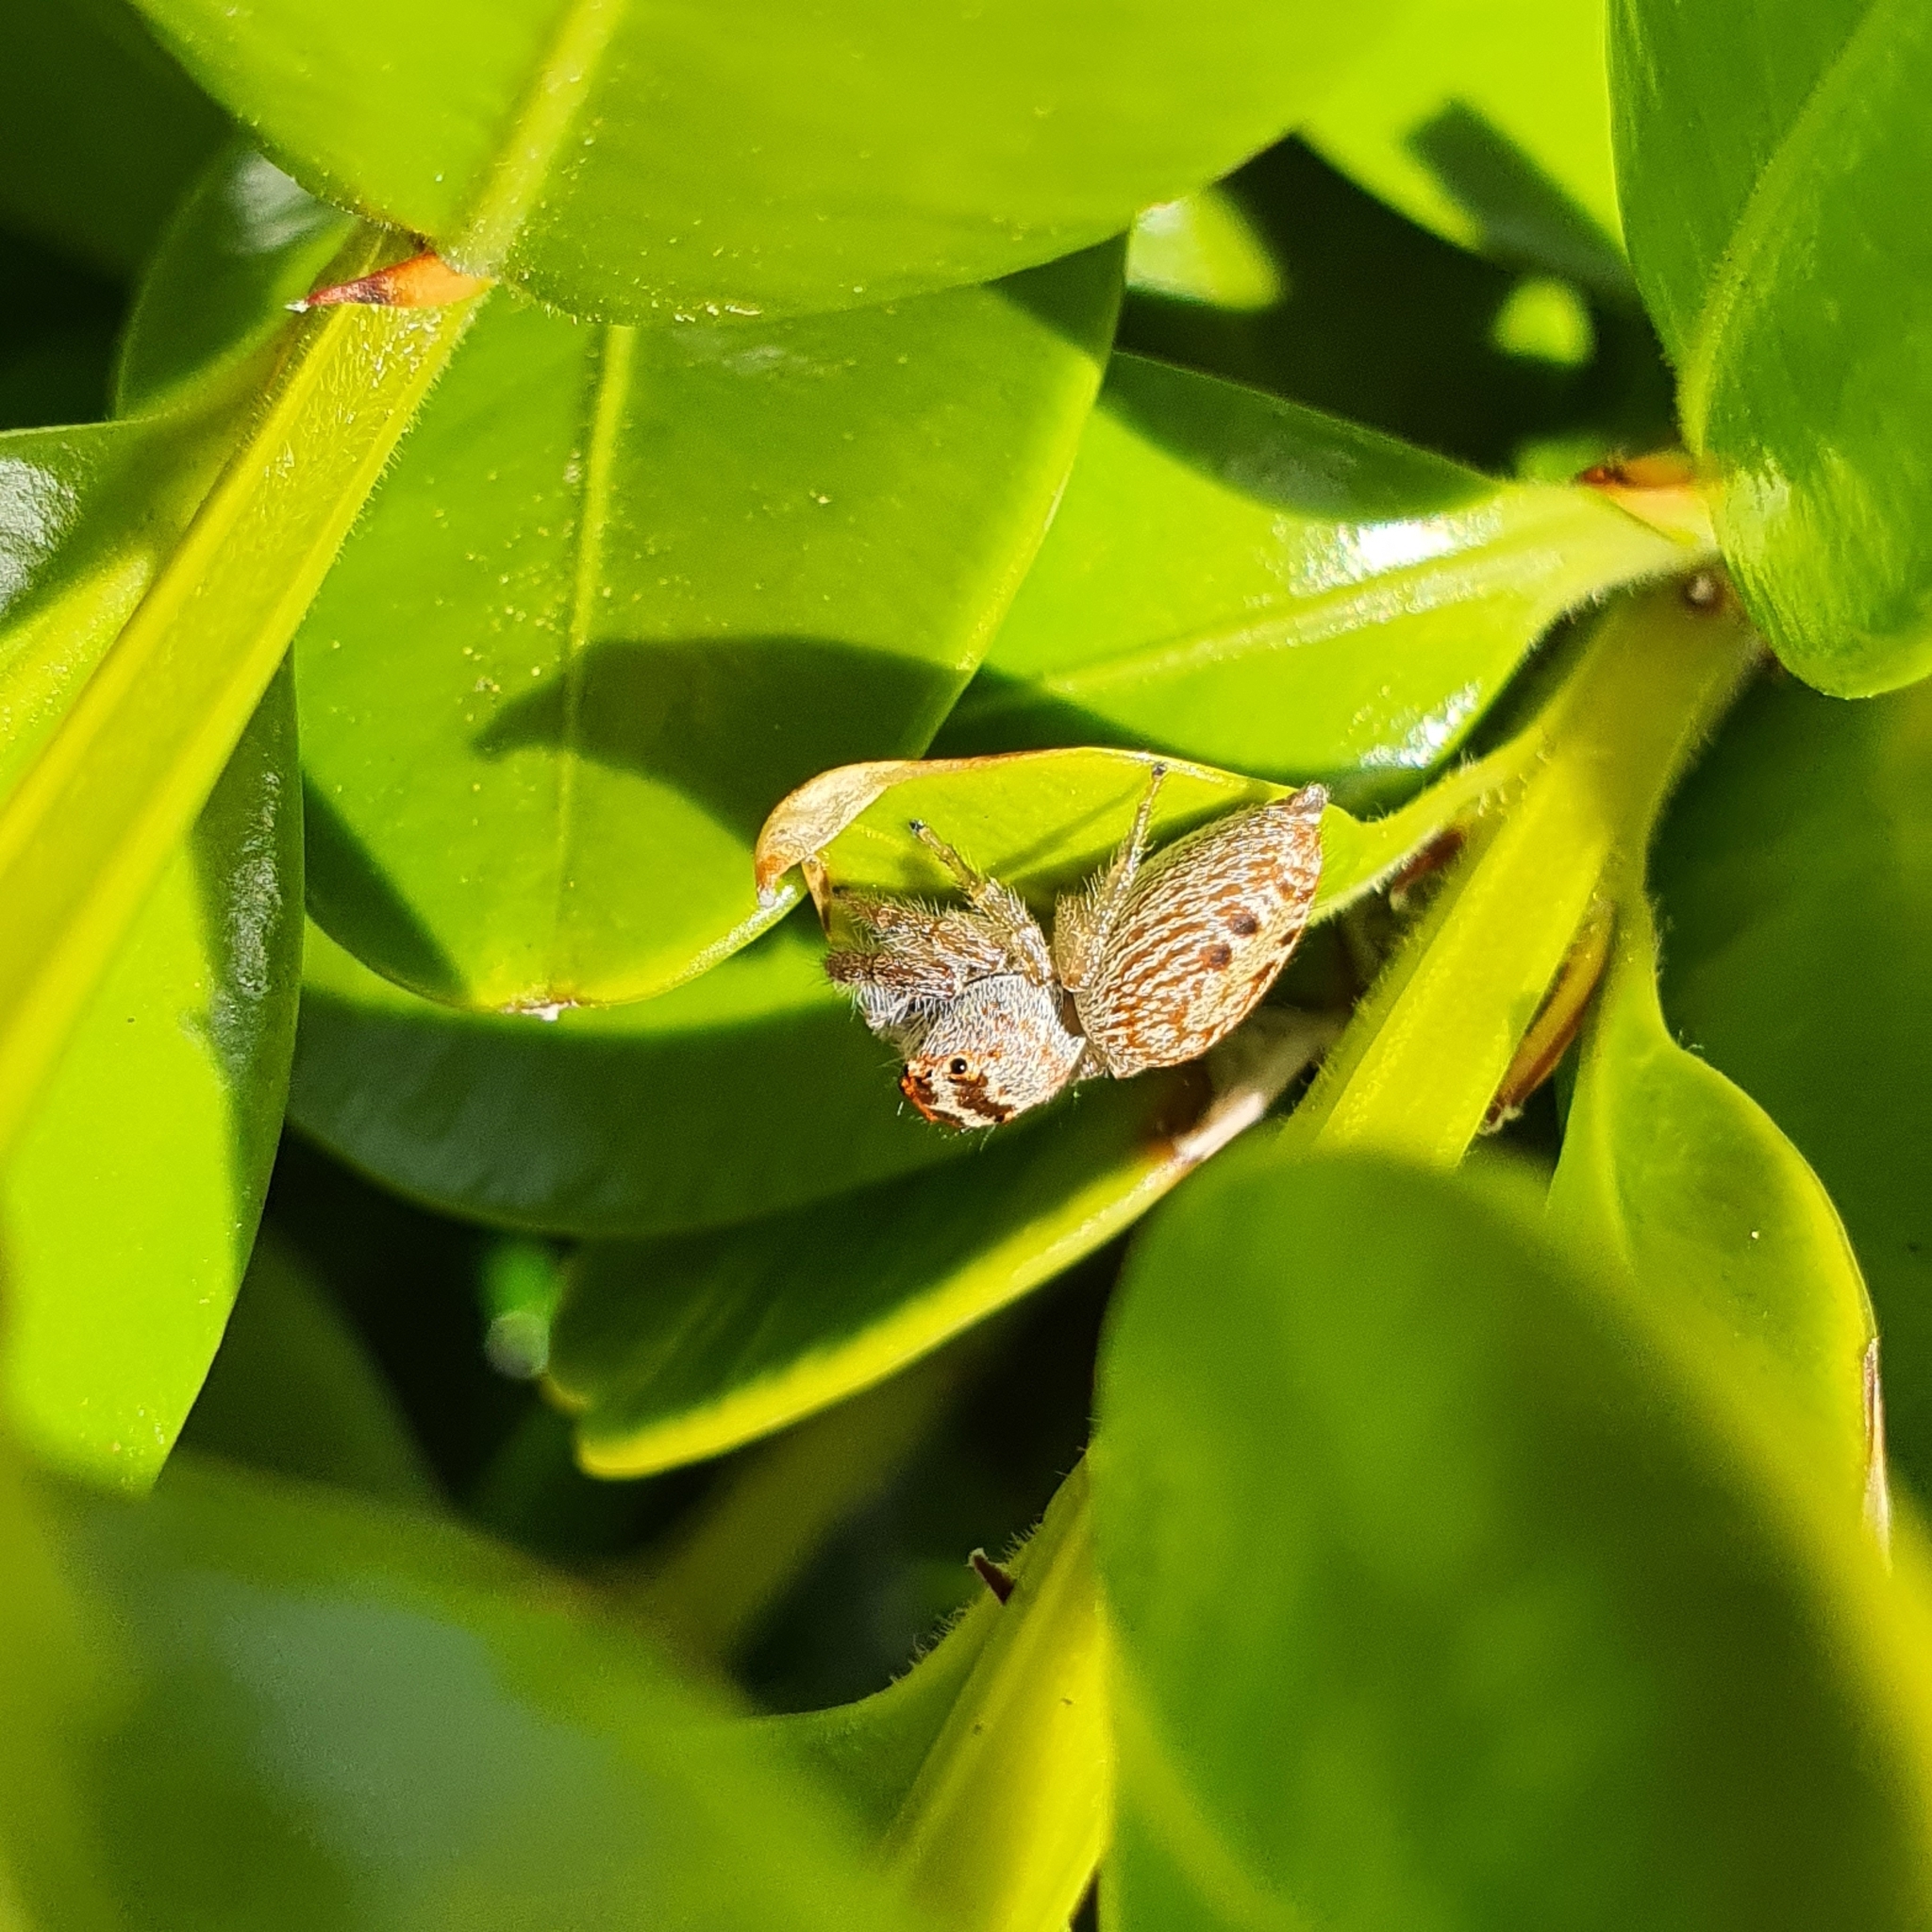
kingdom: Animalia
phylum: Arthropoda
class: Arachnida
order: Araneae
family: Salticidae
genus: Opisthoncus
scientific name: Opisthoncus nigrofemoratus
